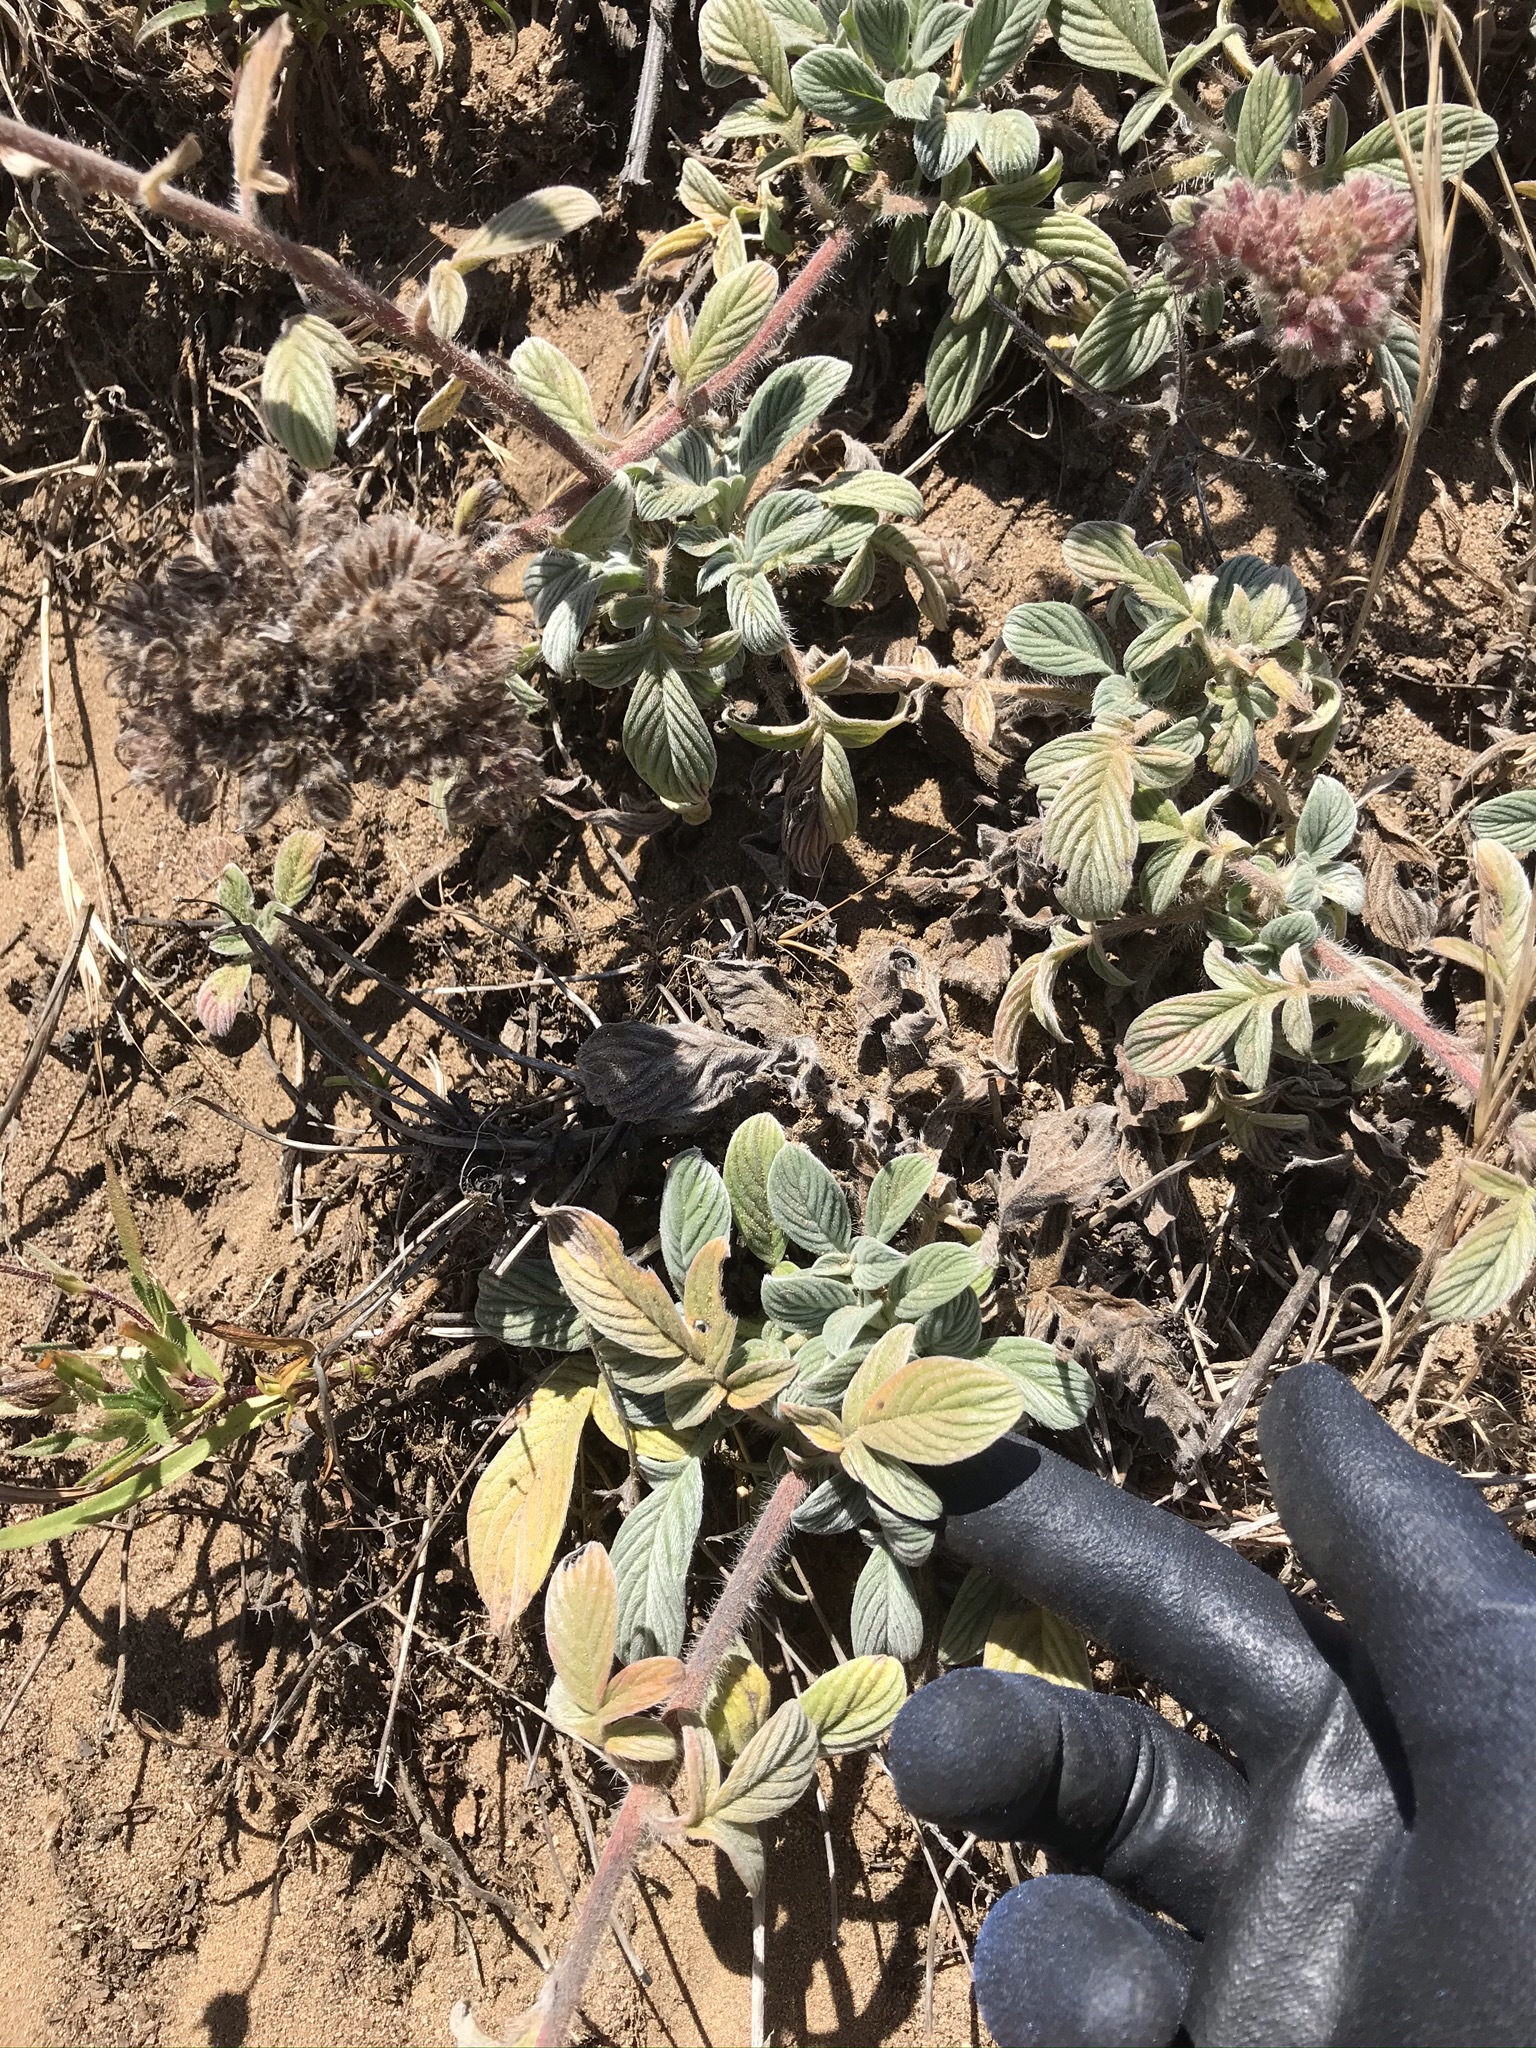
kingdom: Plantae
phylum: Tracheophyta
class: Magnoliopsida
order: Boraginales
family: Hydrophyllaceae
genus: Phacelia
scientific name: Phacelia californica
